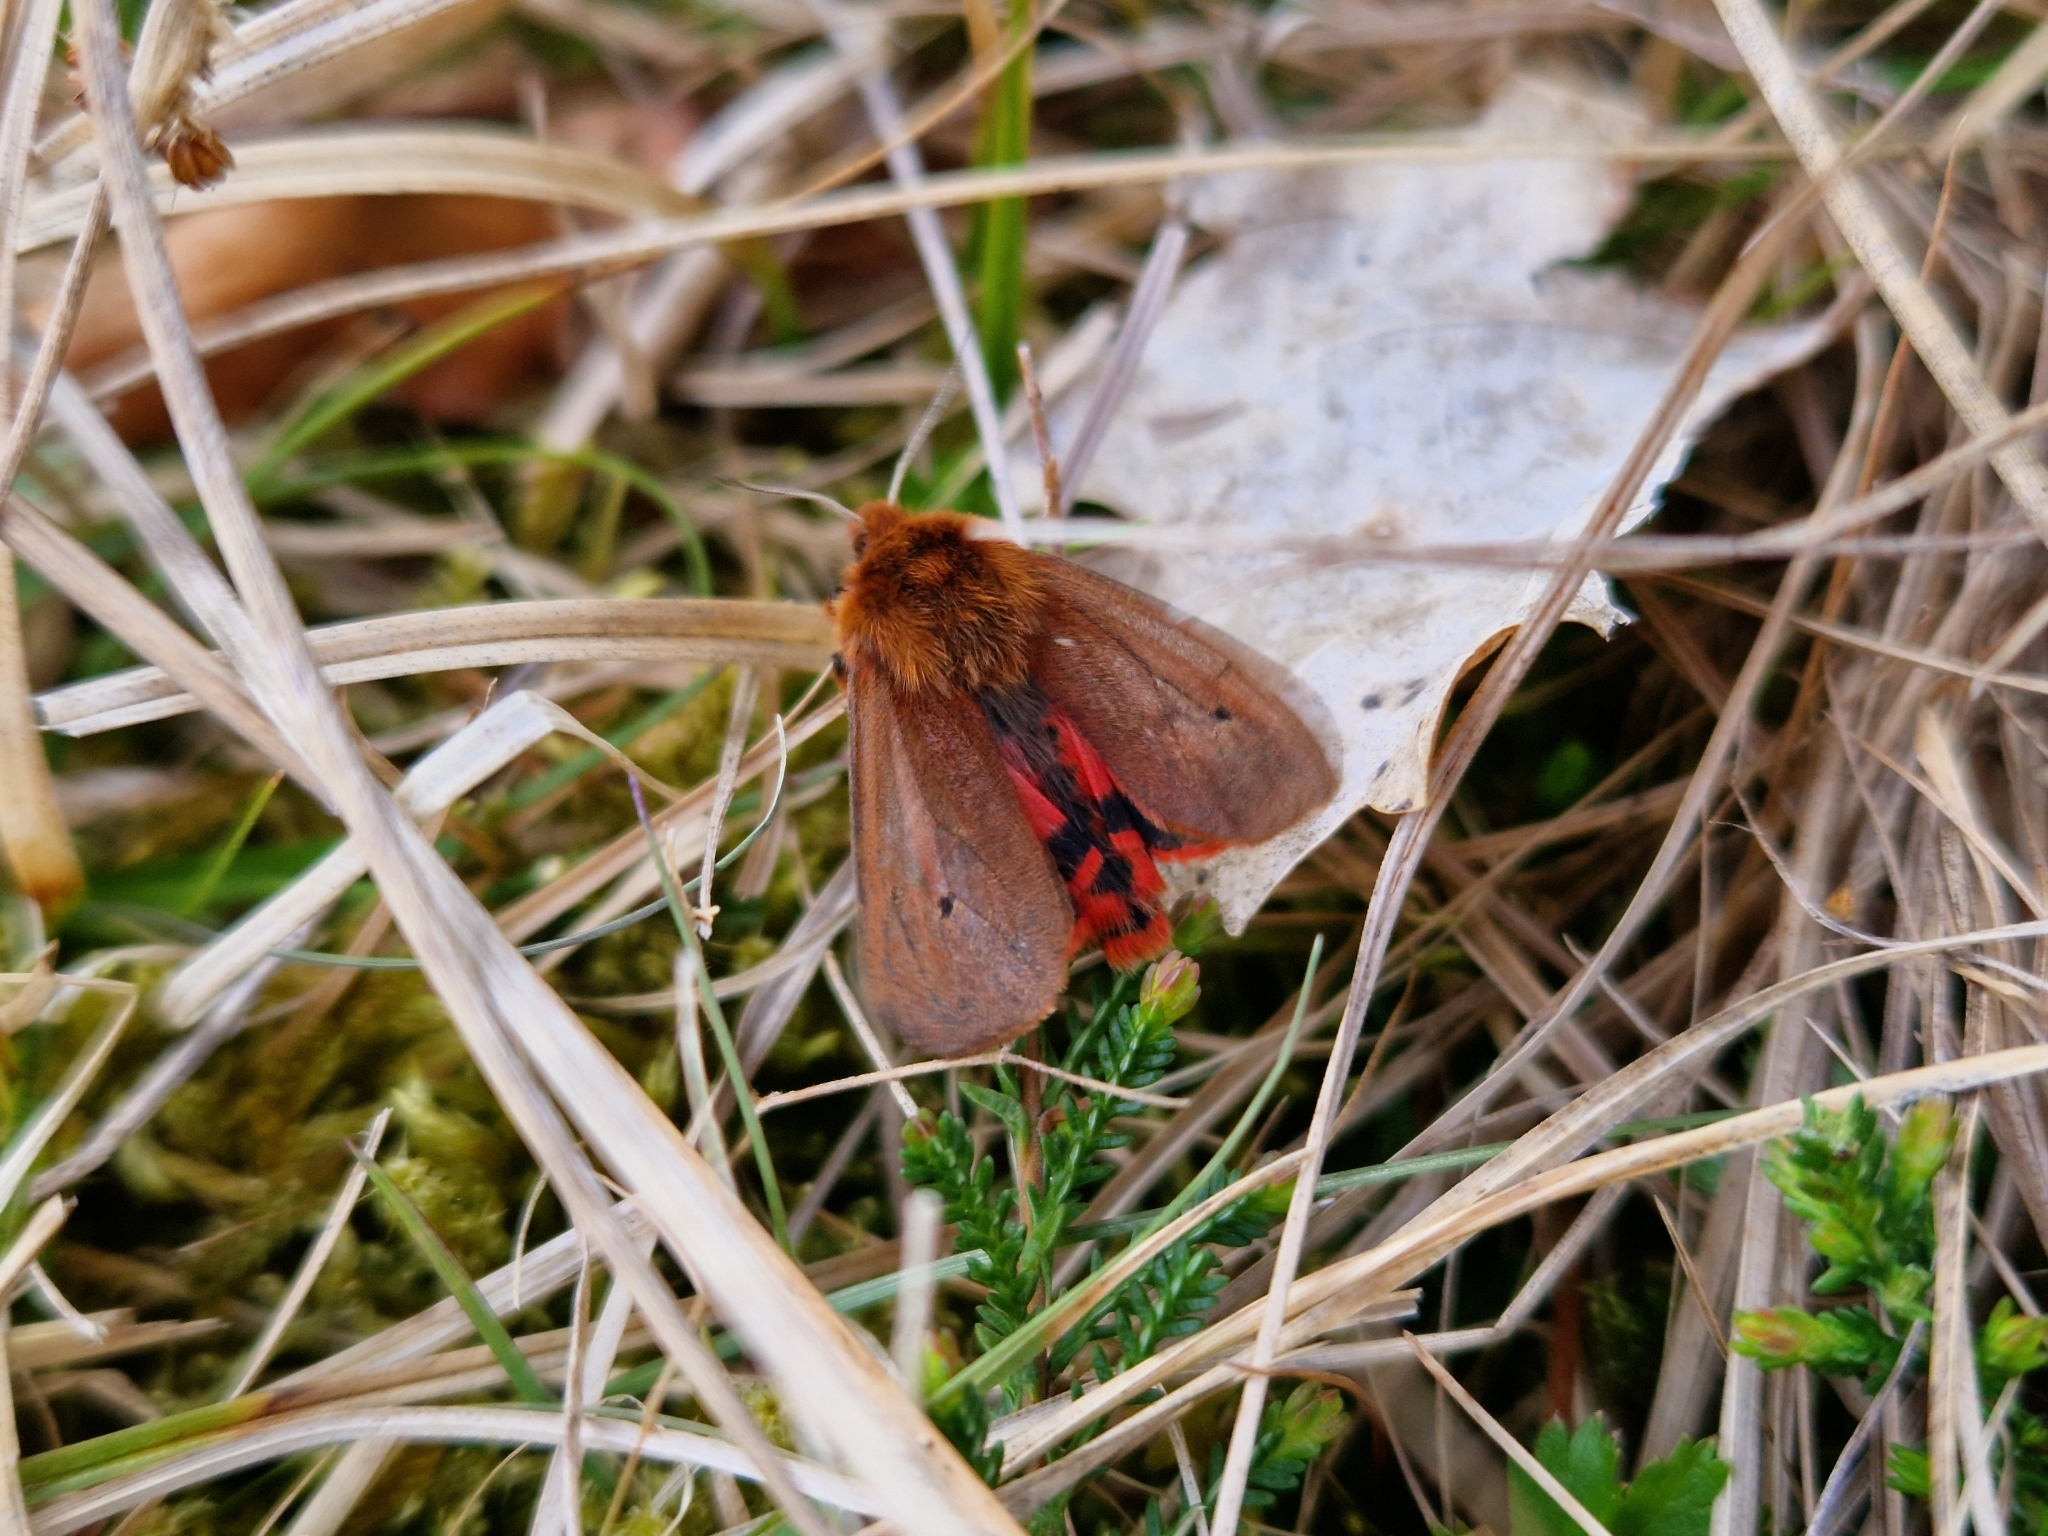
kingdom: Animalia
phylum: Arthropoda
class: Insecta
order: Lepidoptera
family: Erebidae
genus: Phragmatobia
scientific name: Phragmatobia fuliginosa
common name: Ruby tiger
